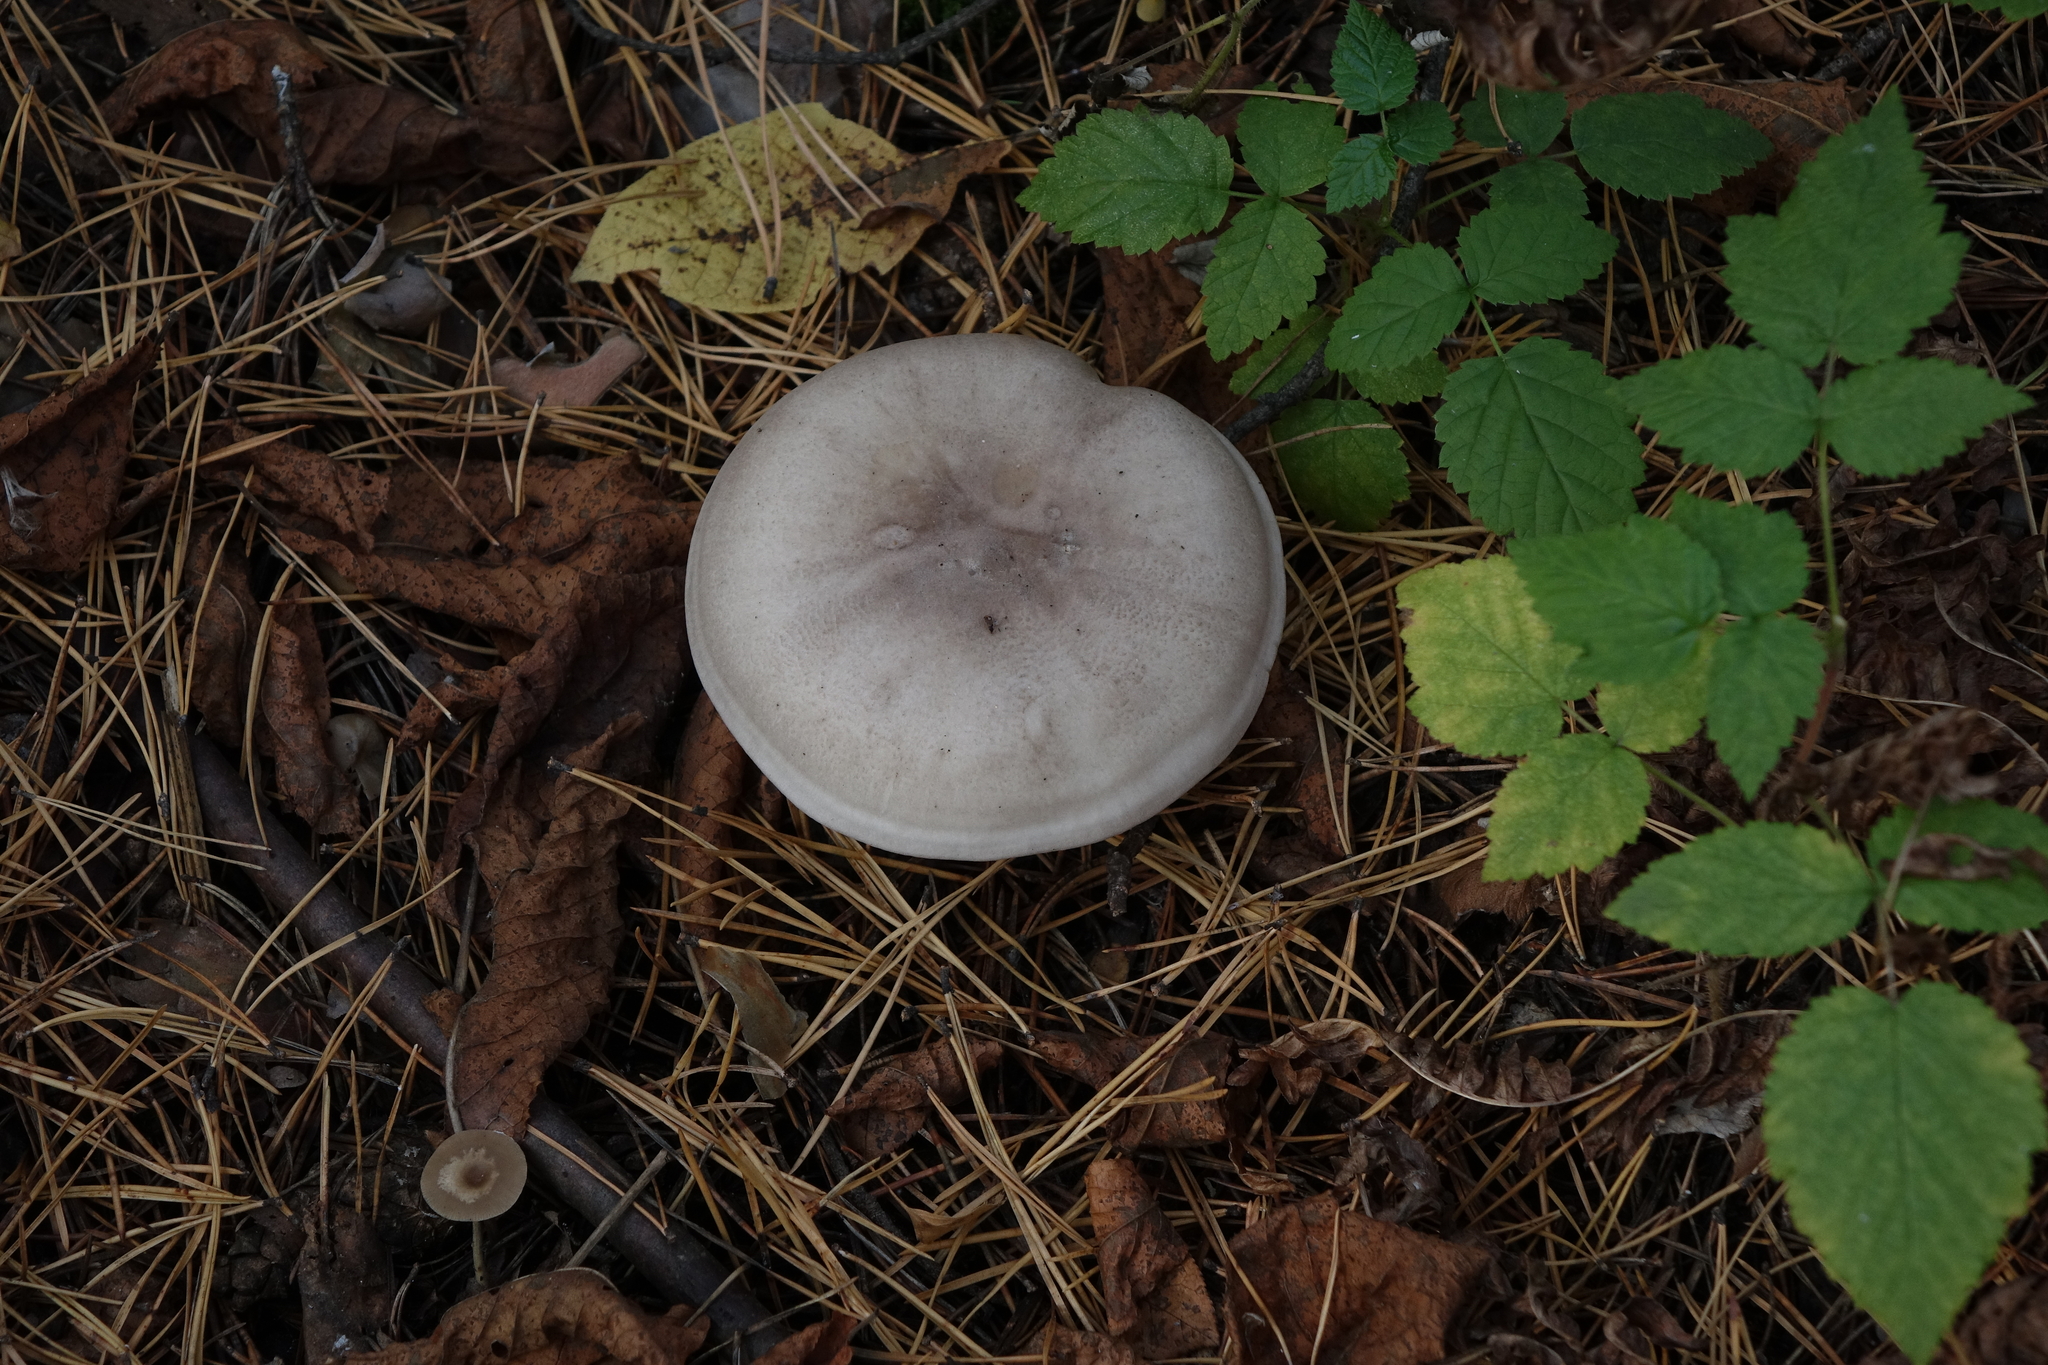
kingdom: Fungi
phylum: Basidiomycota
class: Agaricomycetes
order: Agaricales
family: Tricholomataceae
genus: Clitocybe
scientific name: Clitocybe nebularis
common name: Clouded agaric
